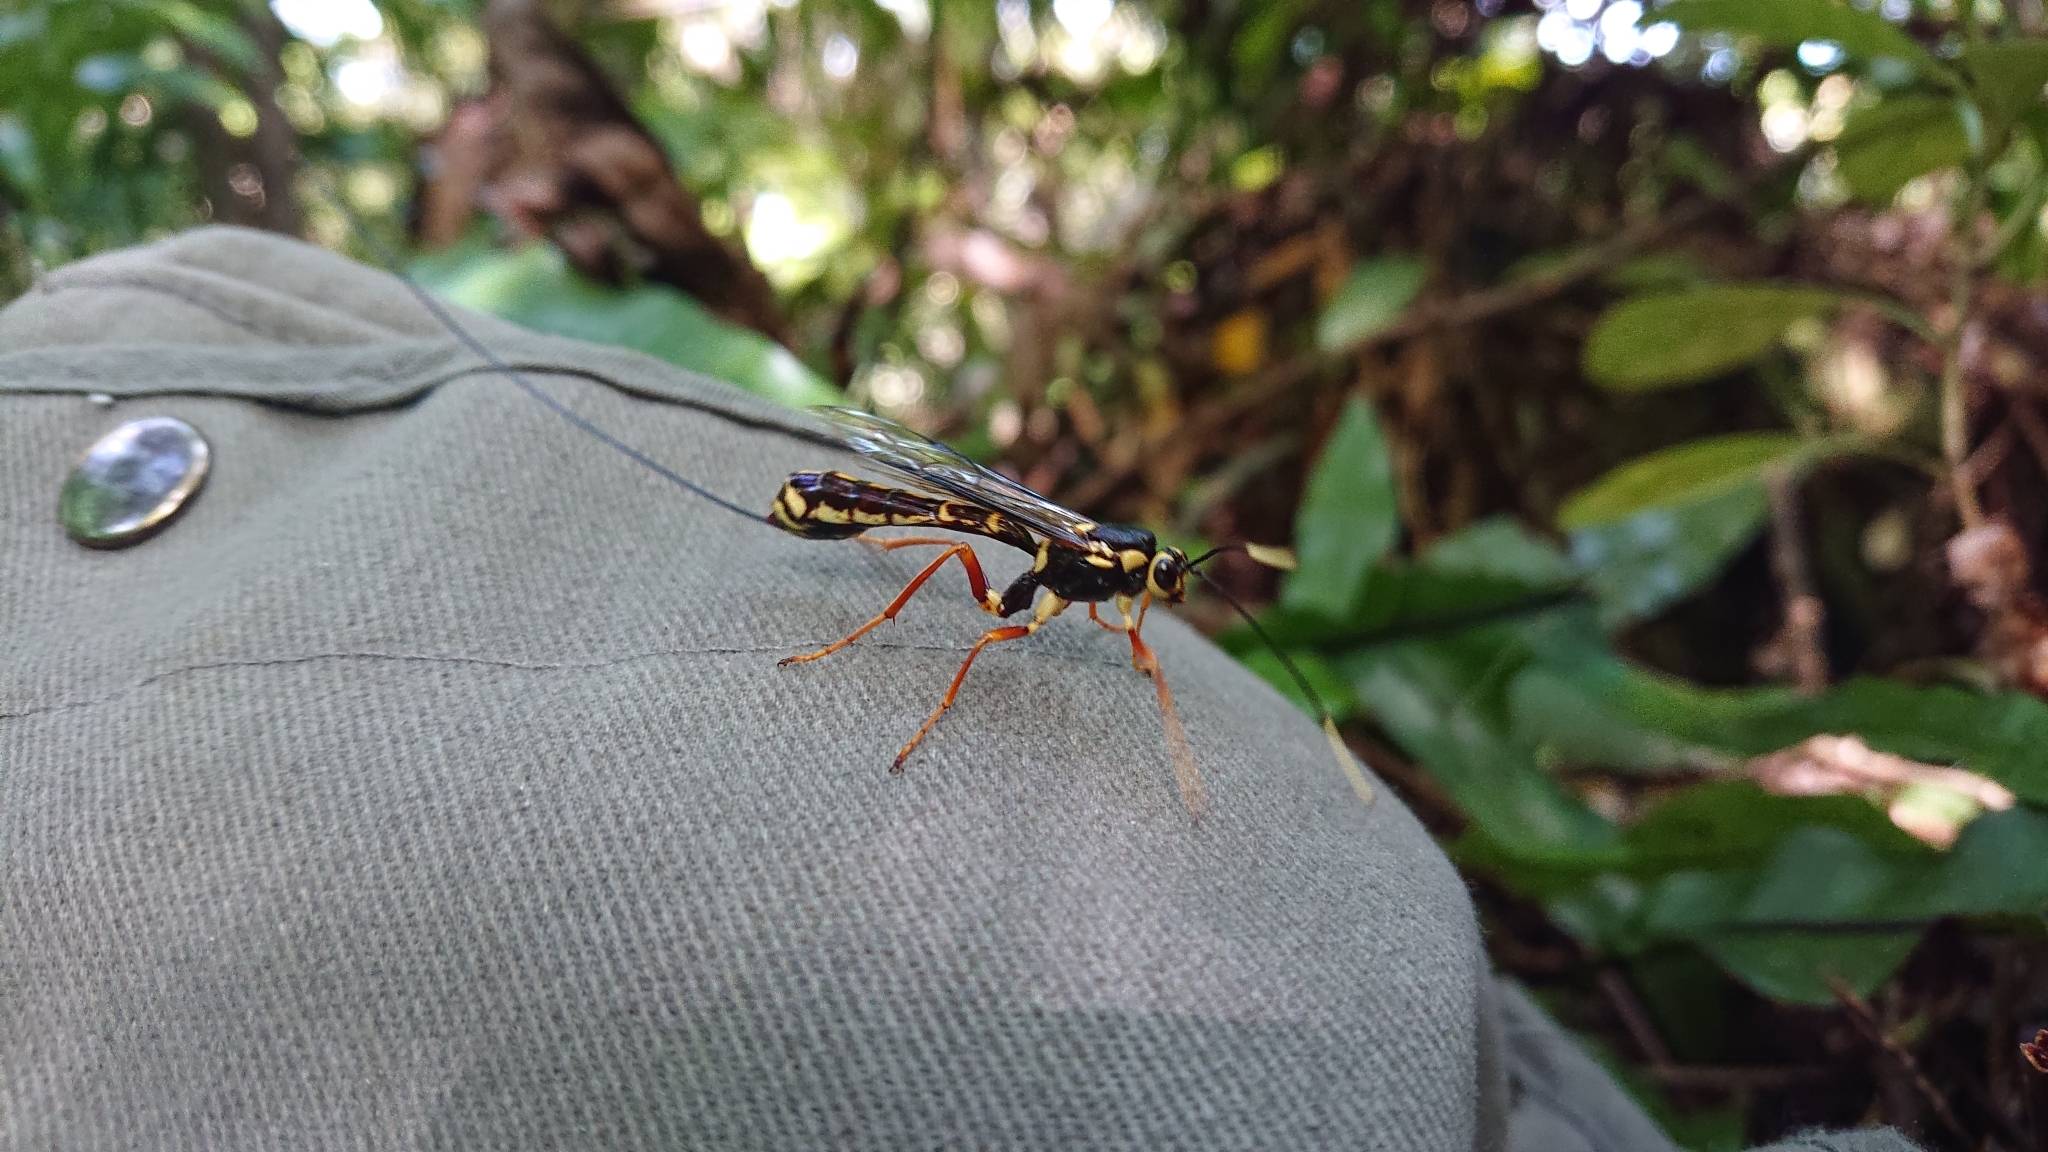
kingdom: Animalia
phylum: Arthropoda
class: Insecta
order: Hymenoptera
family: Ichneumonidae
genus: Certonotus
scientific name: Certonotus fractinervis
